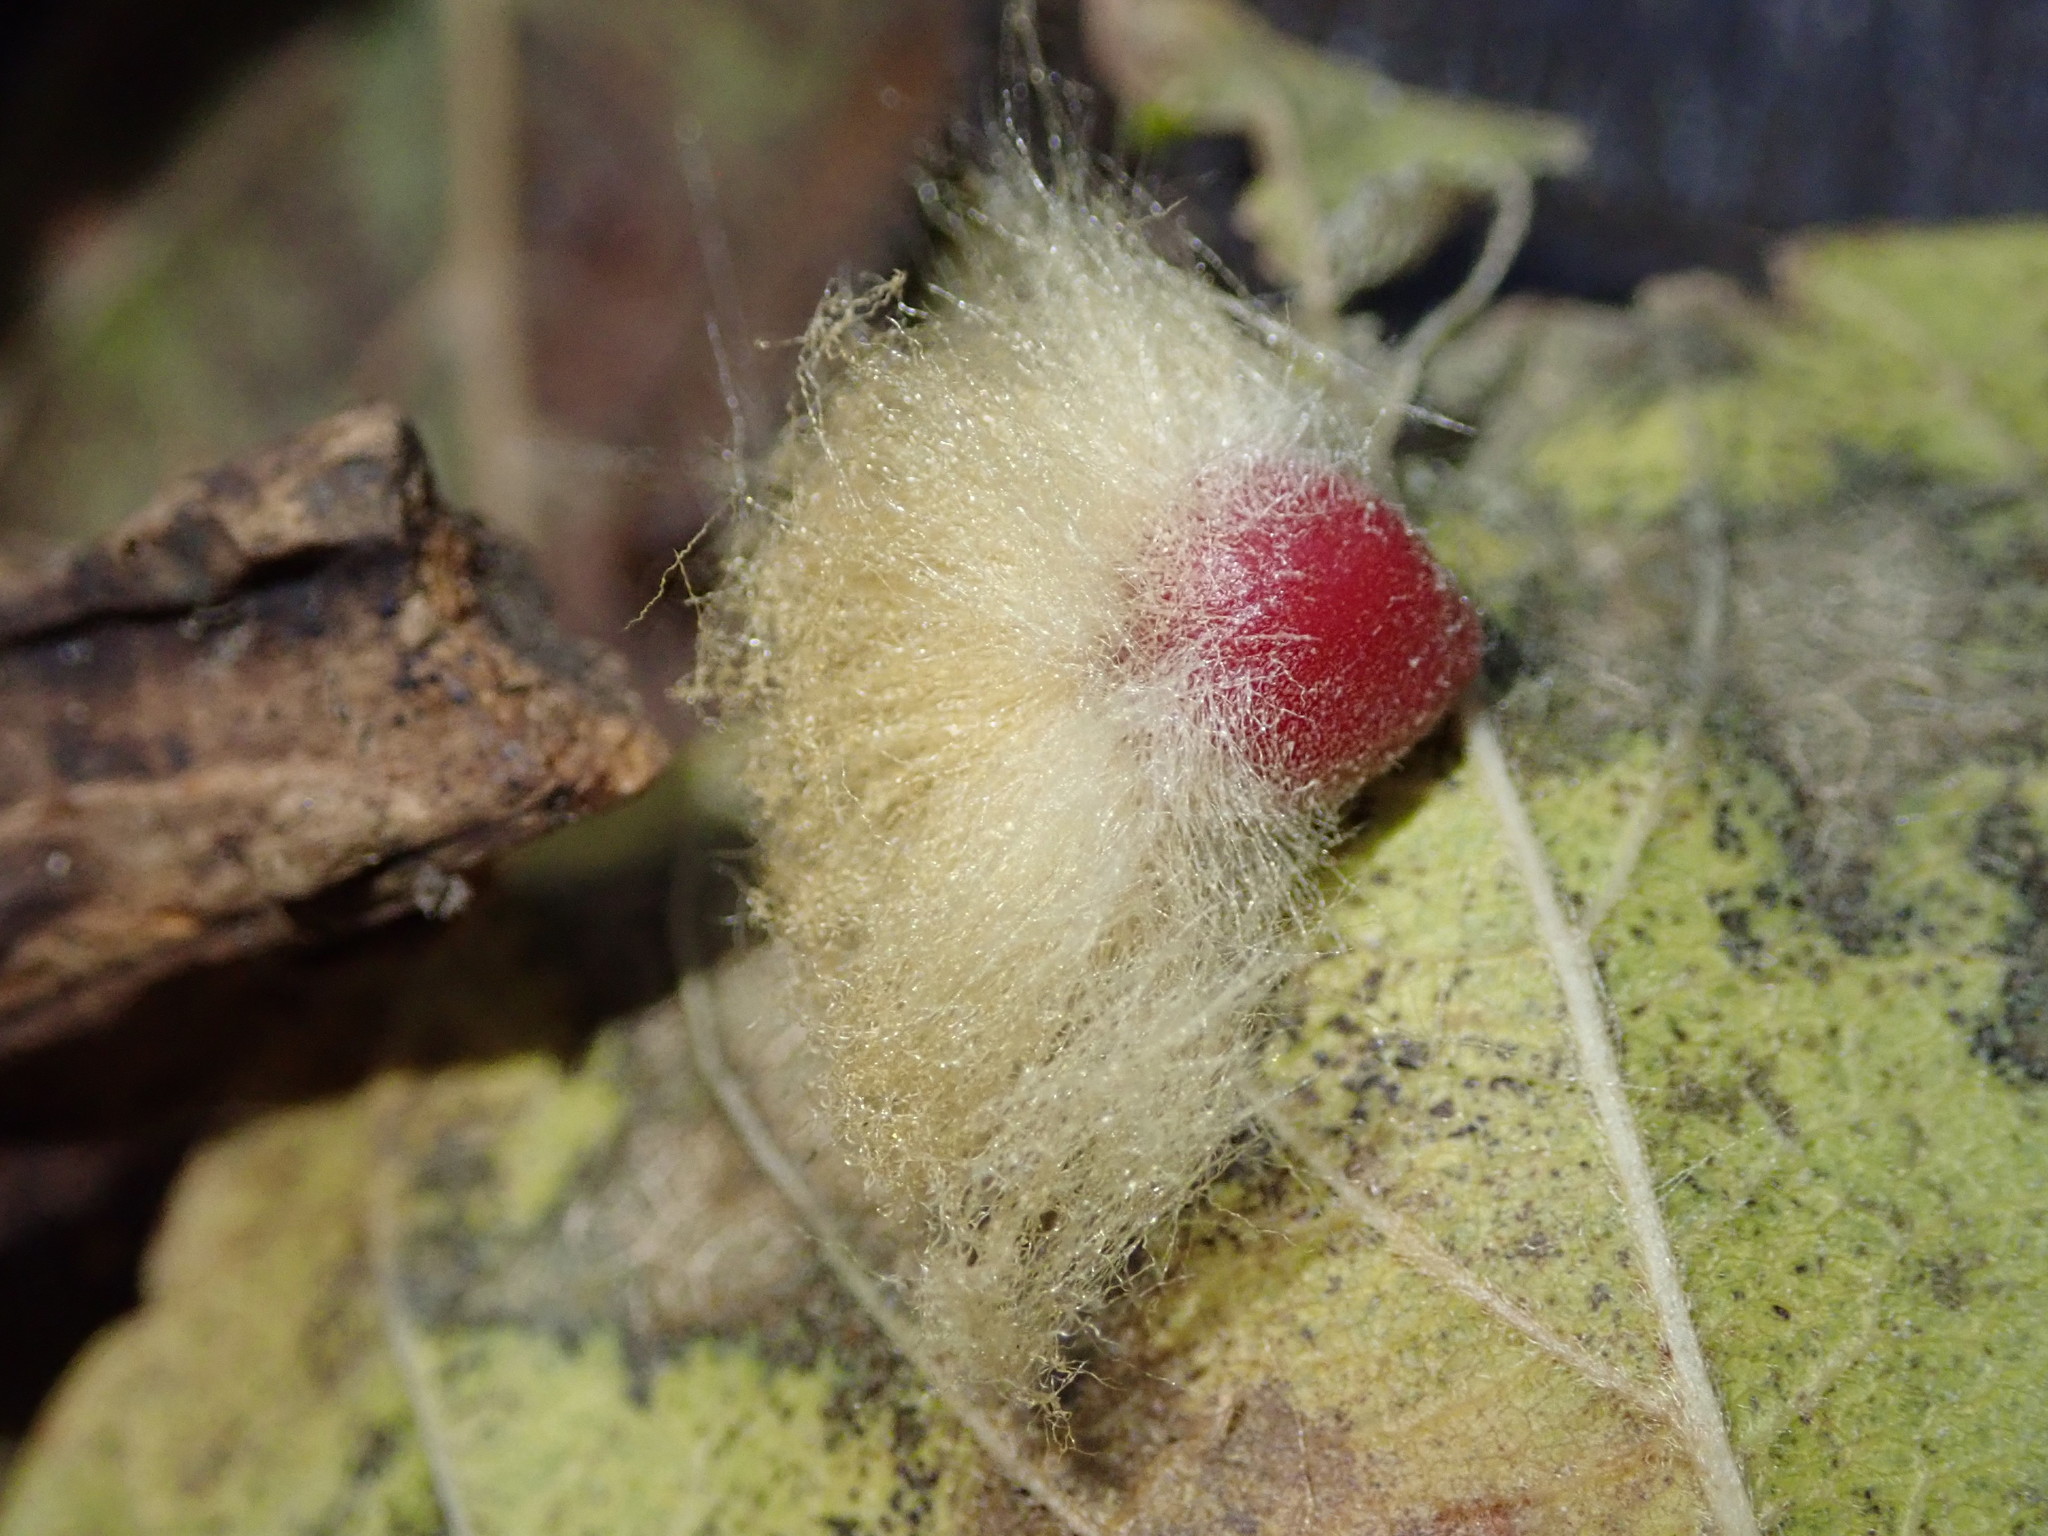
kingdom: Animalia
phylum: Arthropoda
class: Insecta
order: Hymenoptera
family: Cynipidae
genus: Callirhytis
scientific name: Callirhytis
